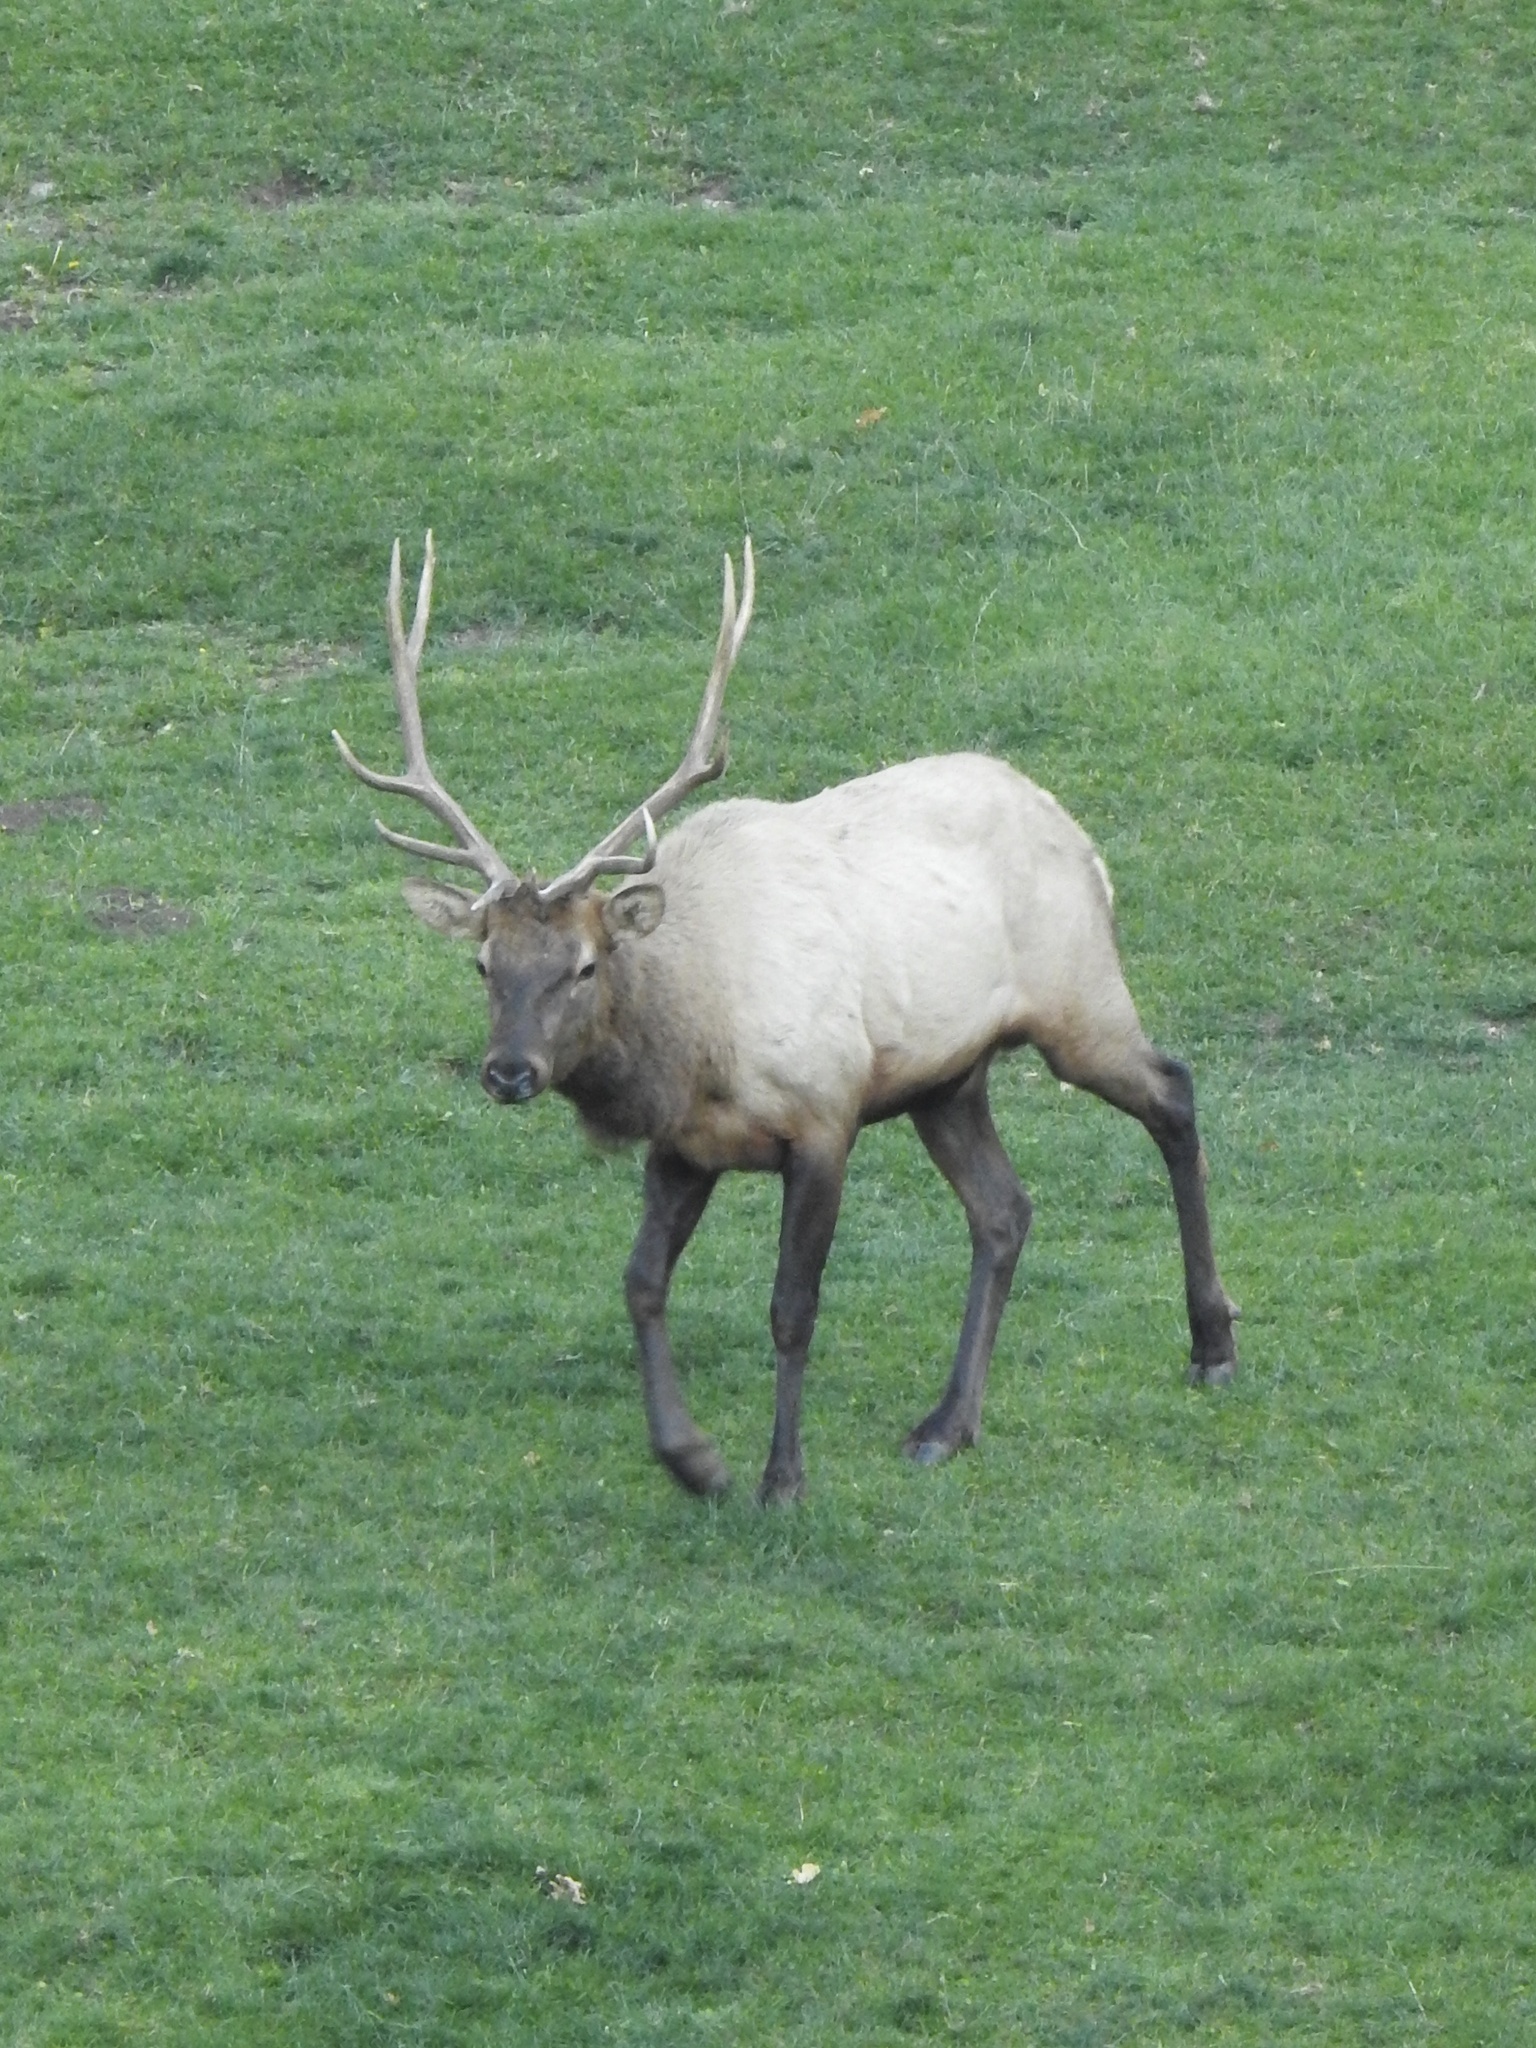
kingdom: Animalia
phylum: Chordata
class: Mammalia
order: Artiodactyla
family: Cervidae
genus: Cervus
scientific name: Cervus elaphus
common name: Red deer
